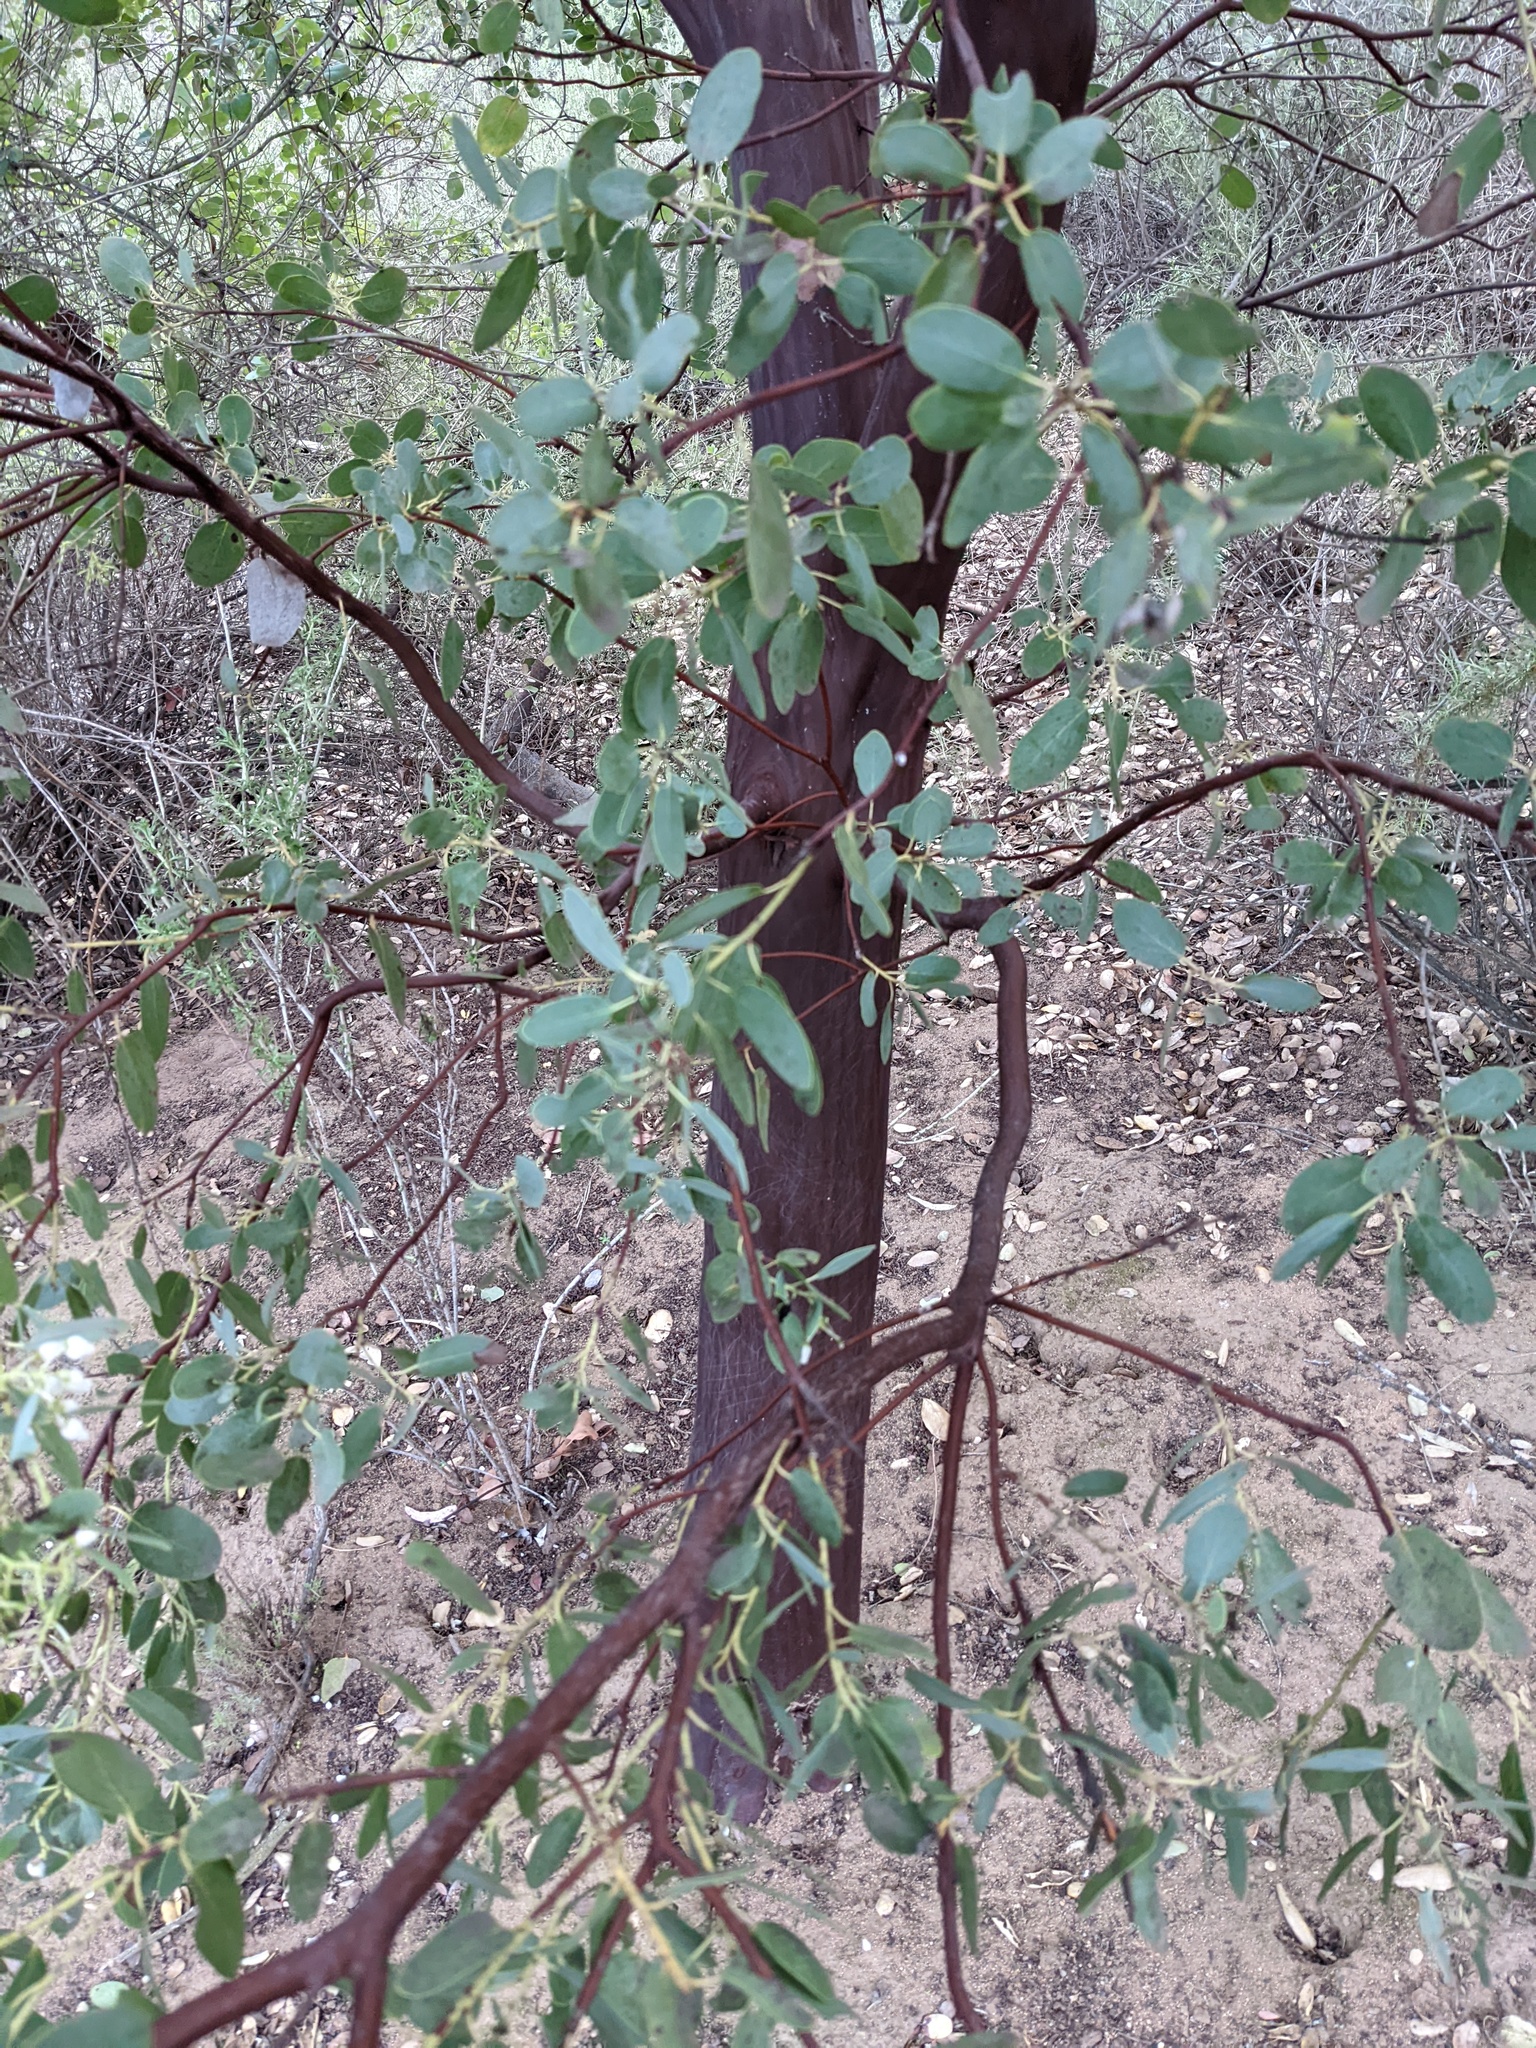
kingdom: Plantae
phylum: Tracheophyta
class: Magnoliopsida
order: Ericales
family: Ericaceae
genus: Arctostaphylos
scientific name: Arctostaphylos glauca
